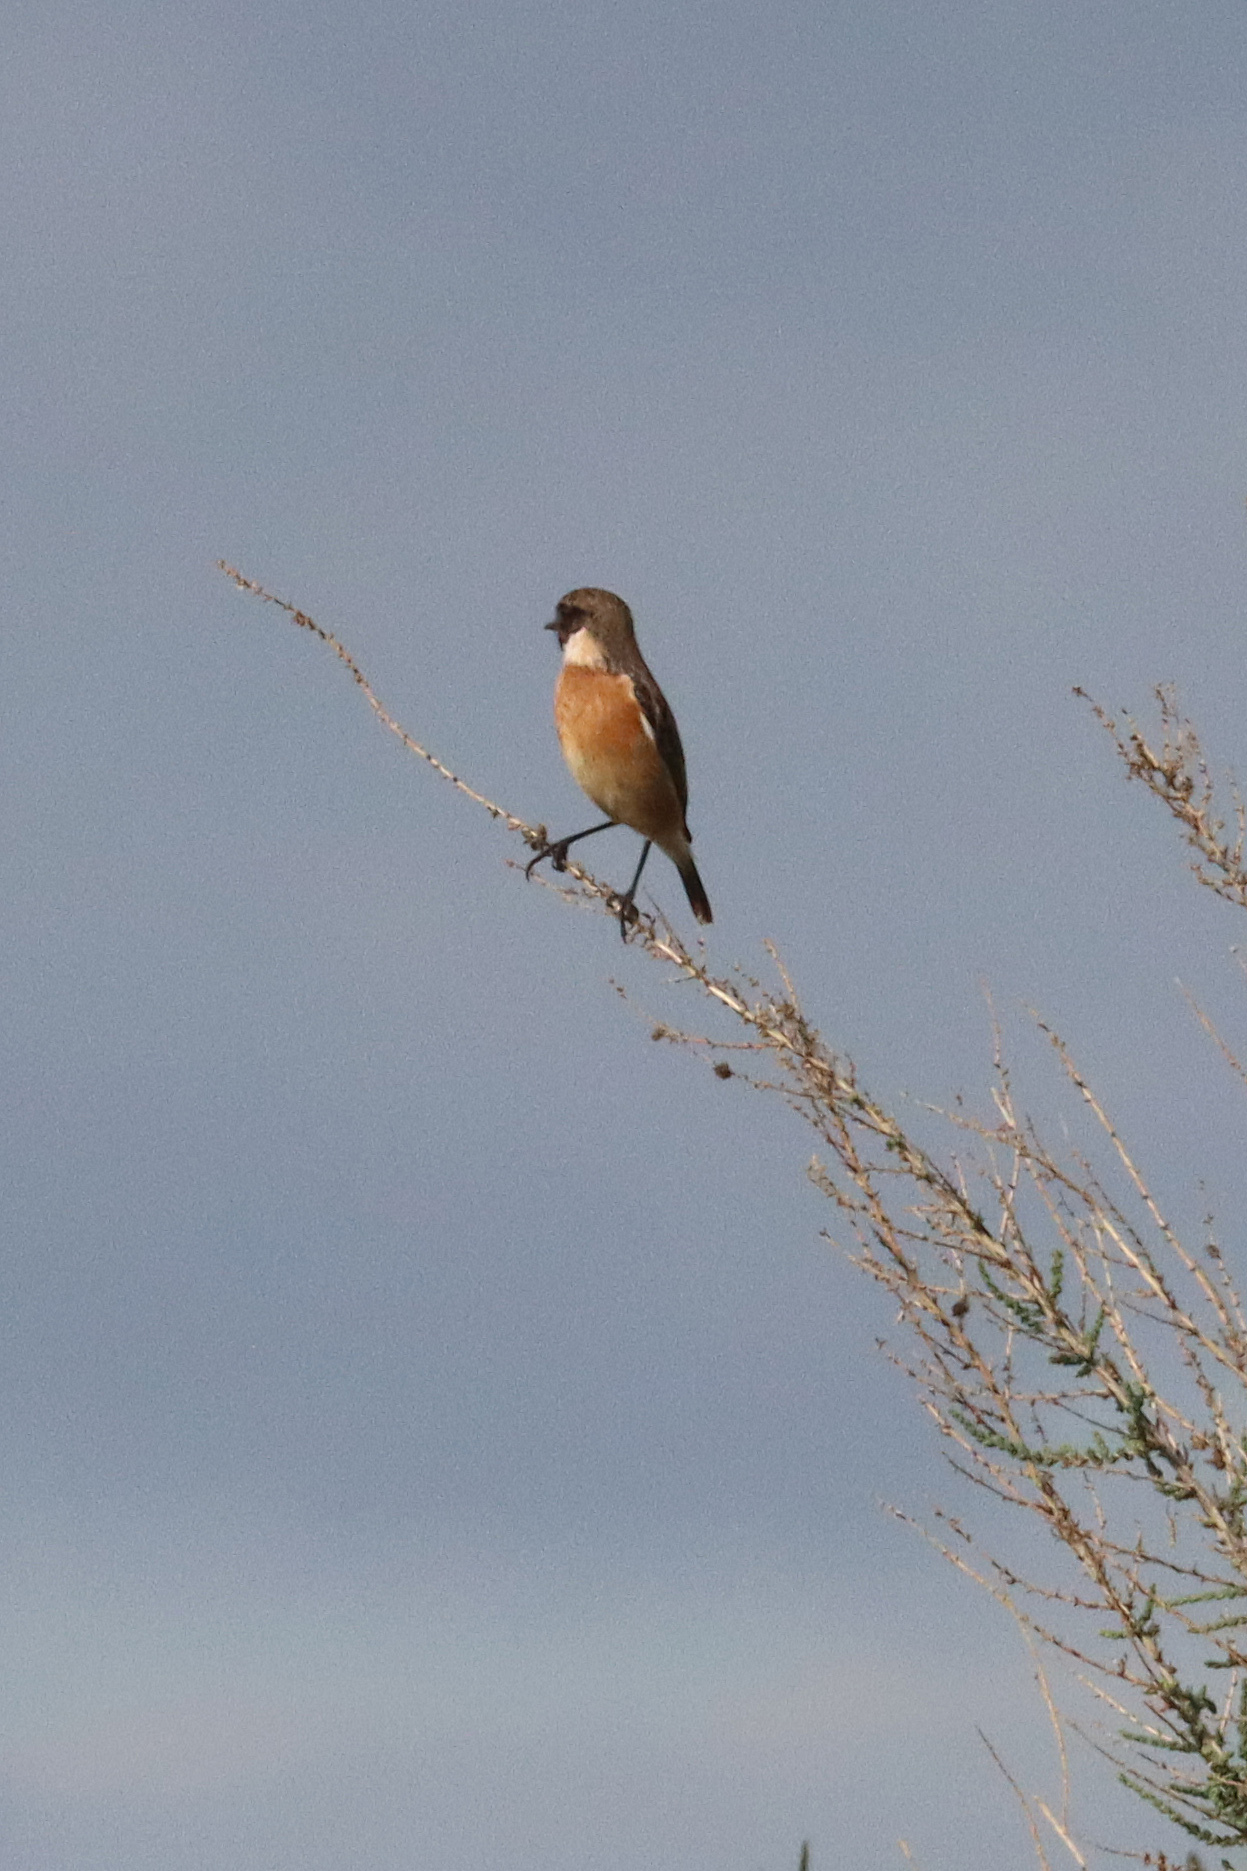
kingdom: Animalia
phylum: Chordata
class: Aves
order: Passeriformes
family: Muscicapidae
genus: Saxicola
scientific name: Saxicola rubicola
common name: European stonechat
